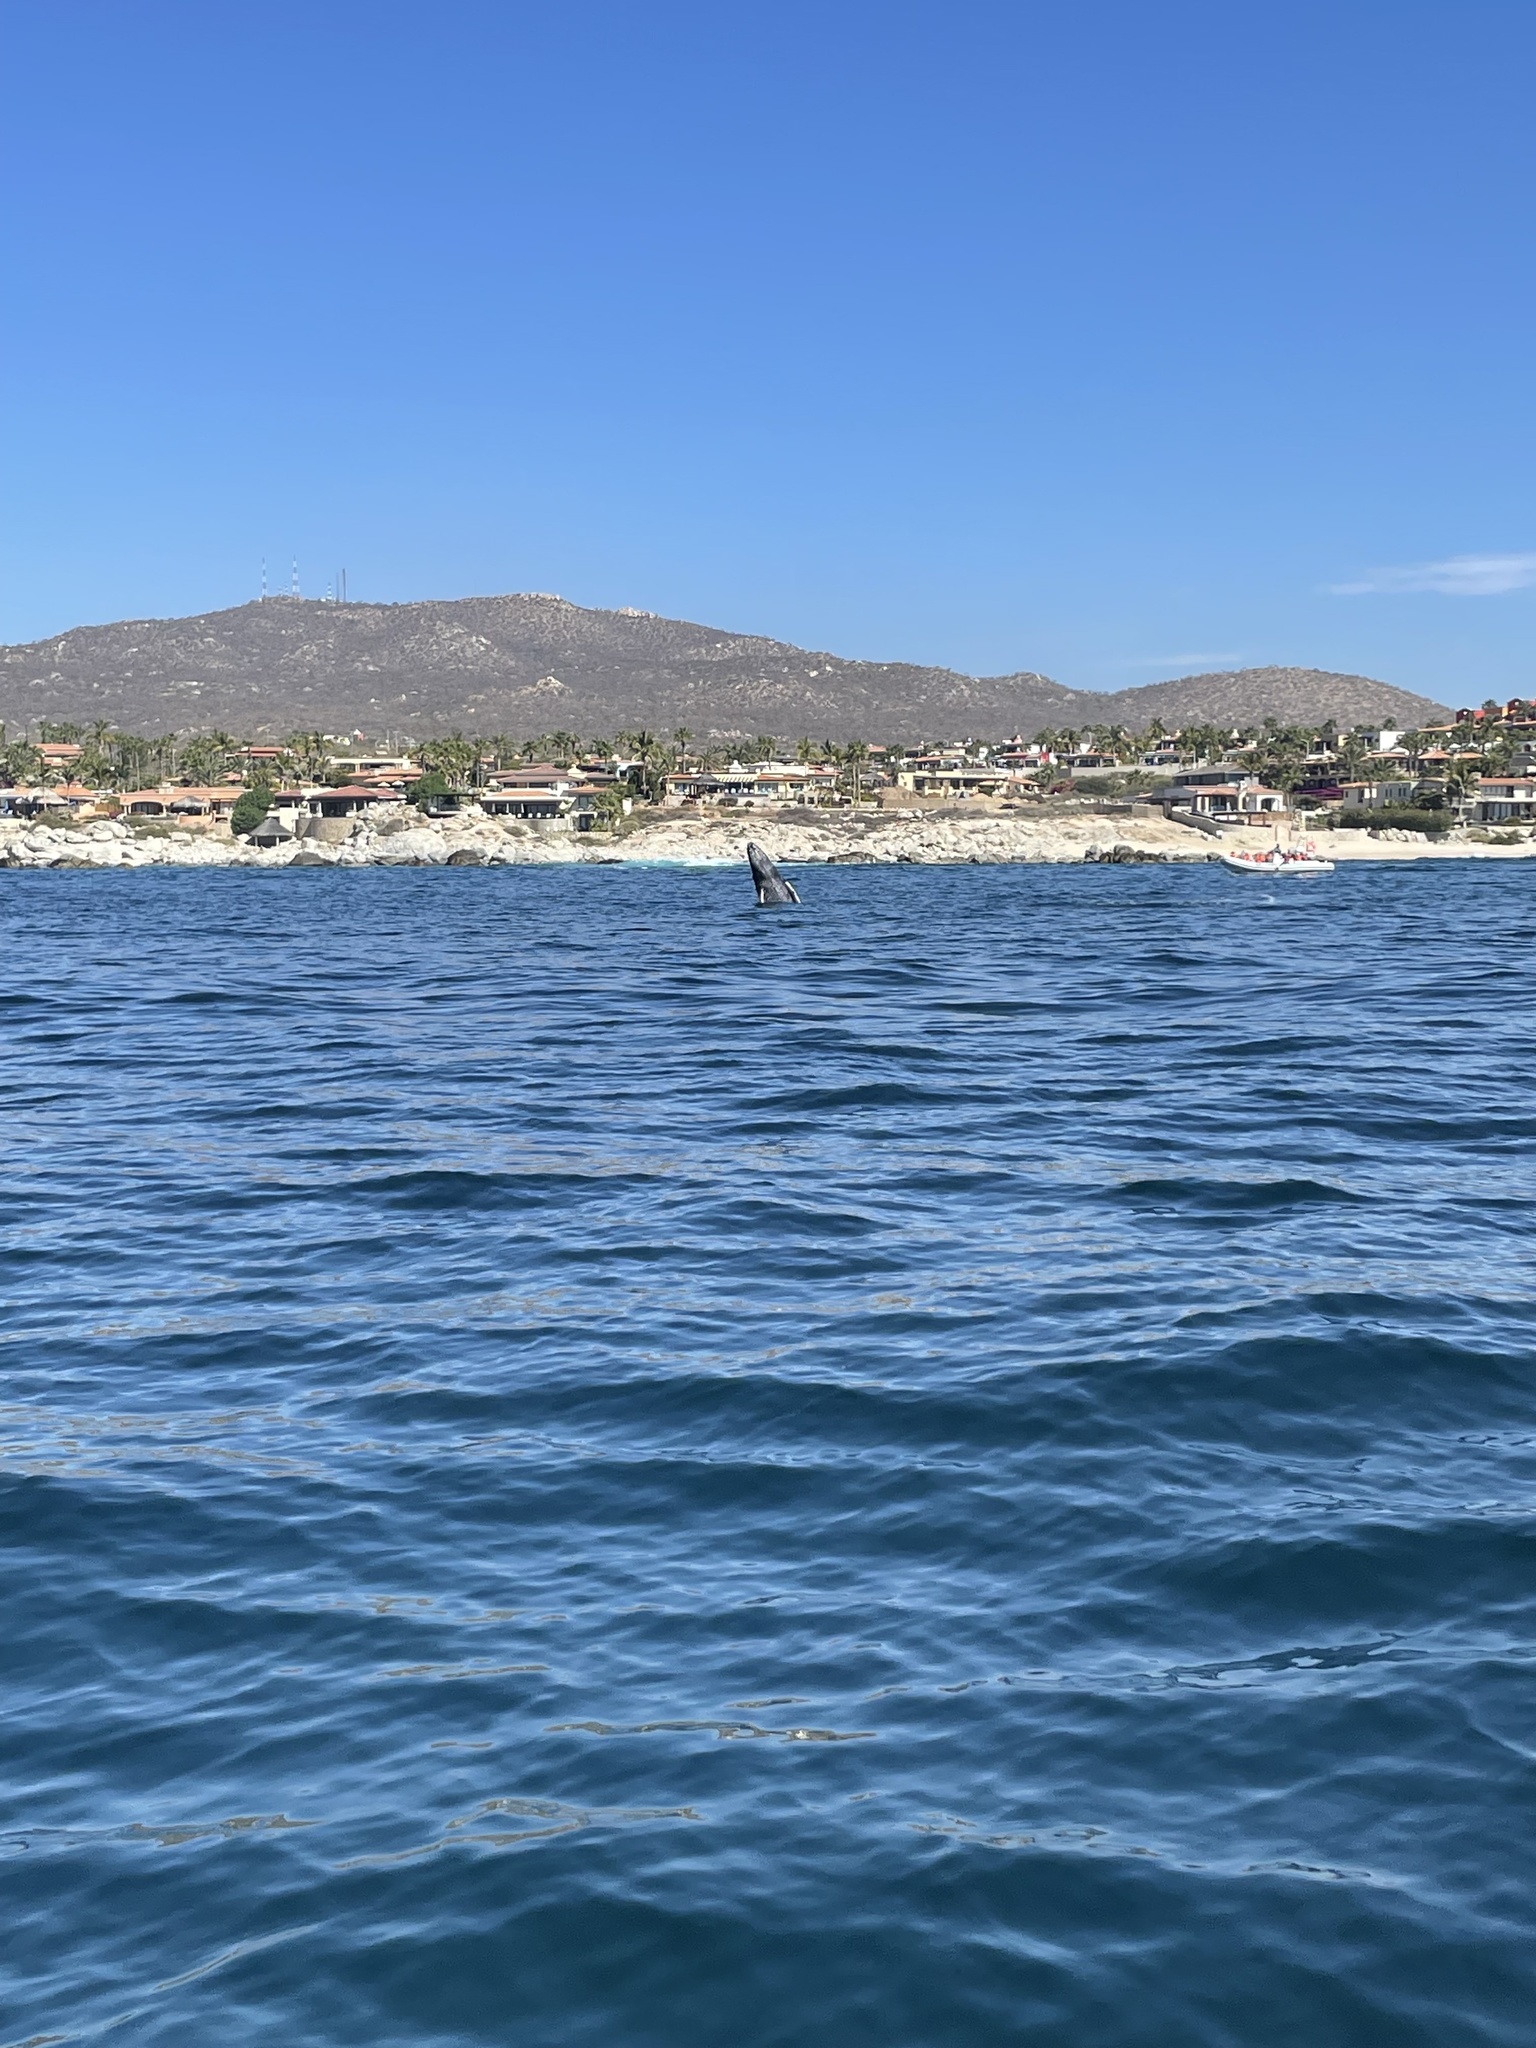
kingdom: Animalia
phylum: Chordata
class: Mammalia
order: Cetacea
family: Balaenopteridae
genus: Megaptera
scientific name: Megaptera novaeangliae
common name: Humpback whale
